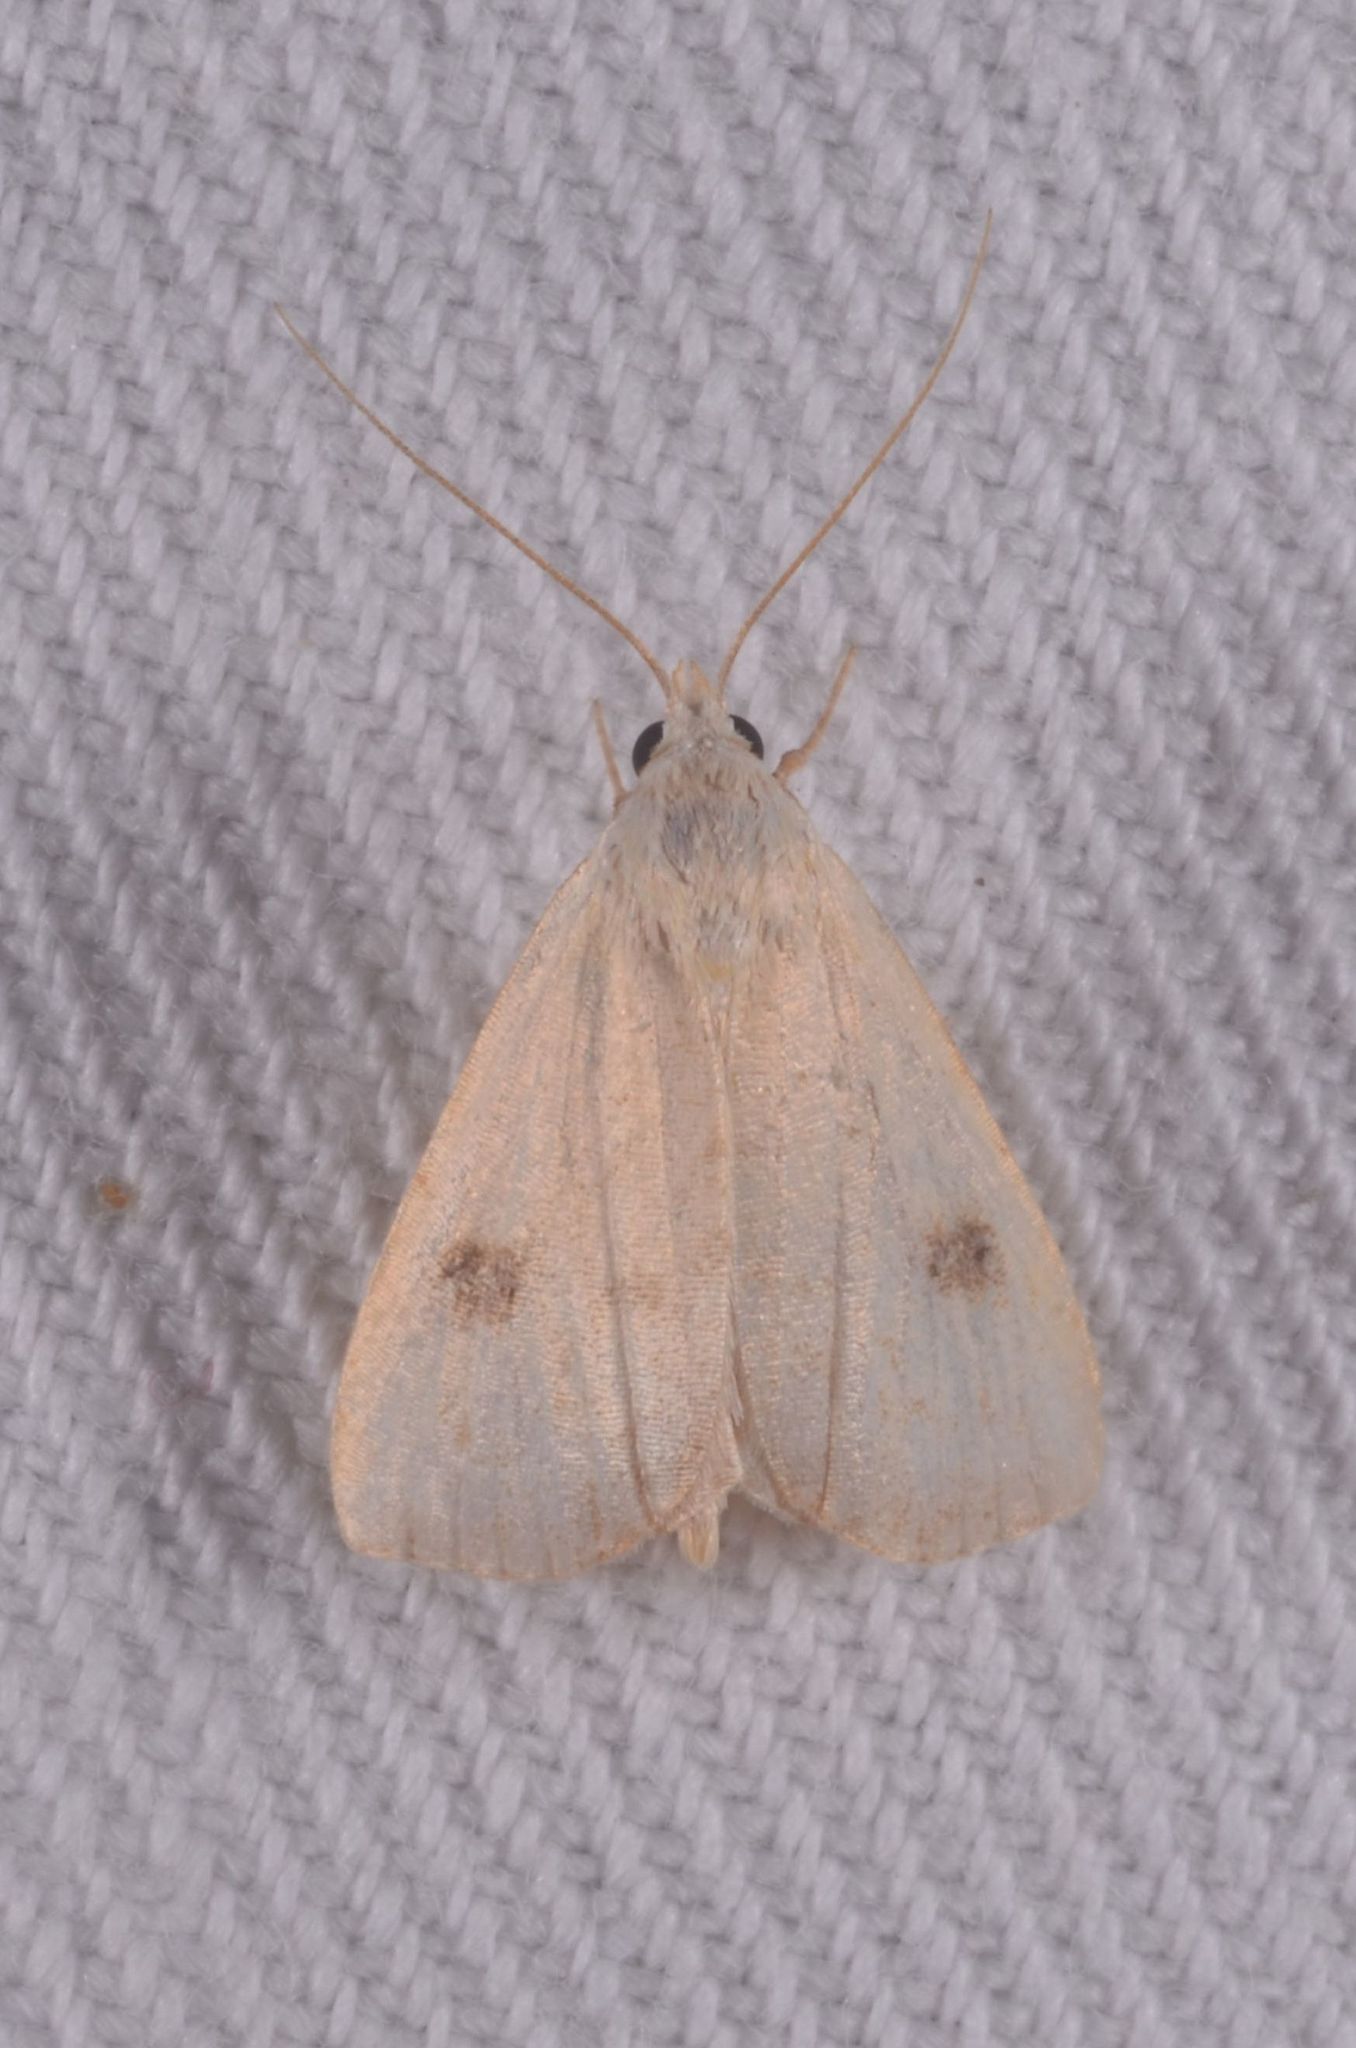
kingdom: Animalia
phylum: Arthropoda
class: Insecta
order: Lepidoptera
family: Erebidae
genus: Rivula
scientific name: Rivula sericealis
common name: Straw dot
